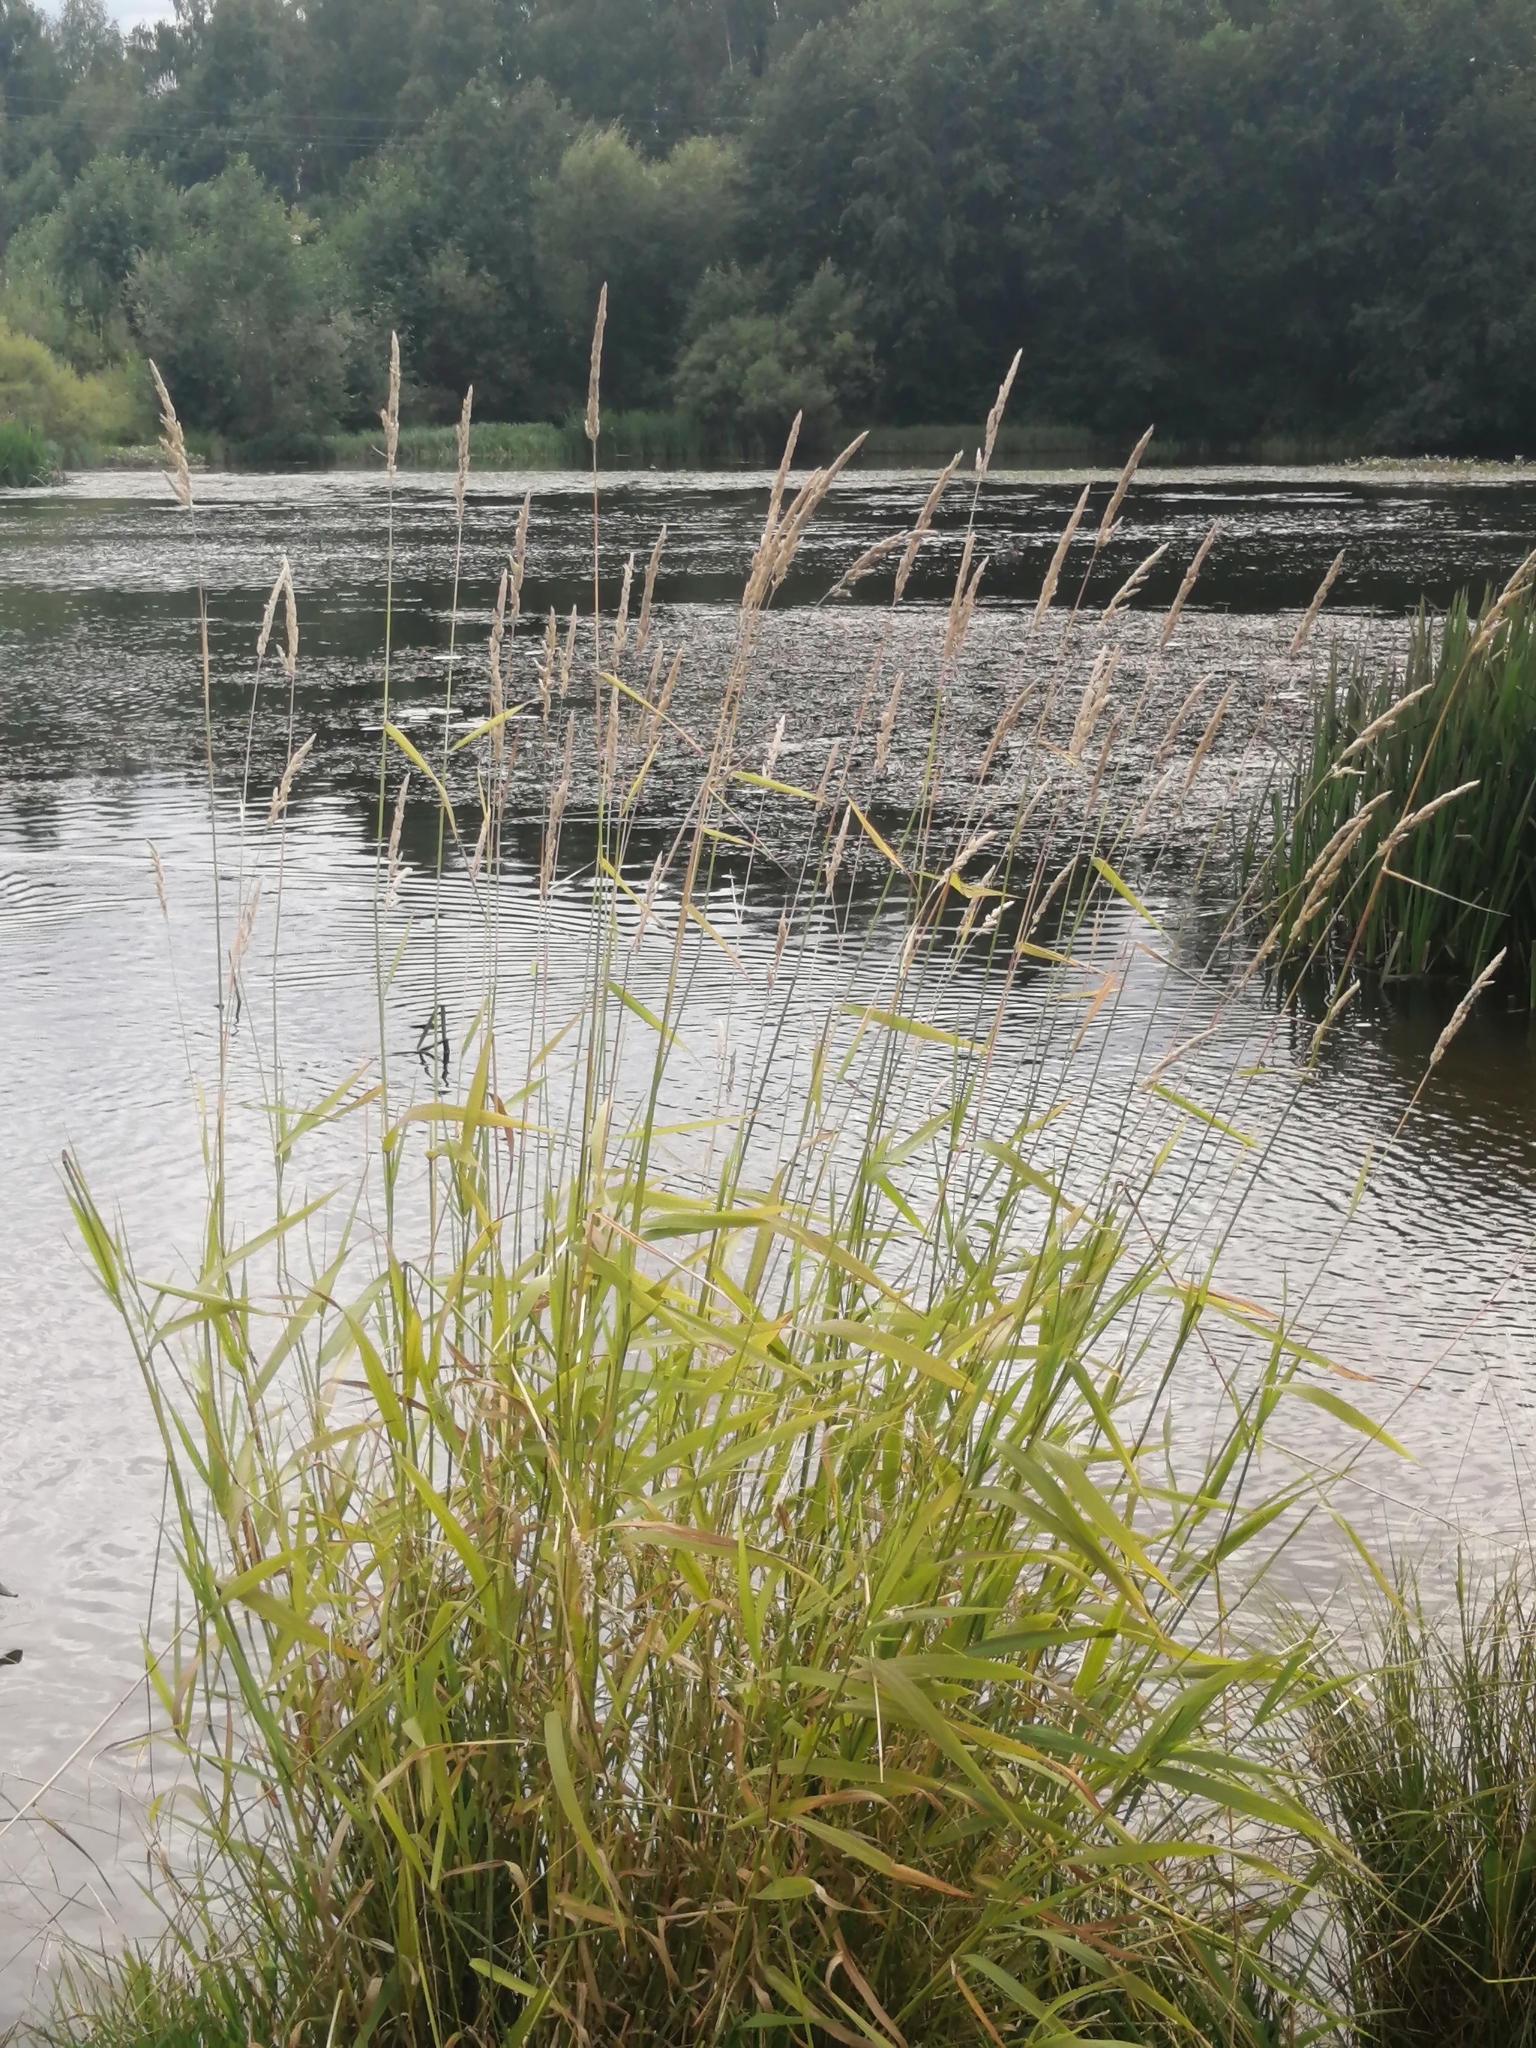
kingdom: Plantae
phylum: Tracheophyta
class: Liliopsida
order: Poales
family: Poaceae
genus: Phalaris
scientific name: Phalaris arundinacea
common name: Reed canary-grass
